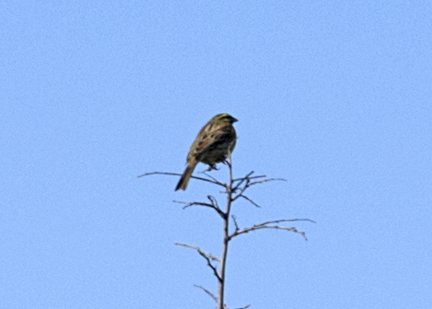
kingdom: Animalia
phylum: Chordata
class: Aves
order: Passeriformes
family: Emberizidae
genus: Emberiza
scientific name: Emberiza cirlus
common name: Cirl bunting
